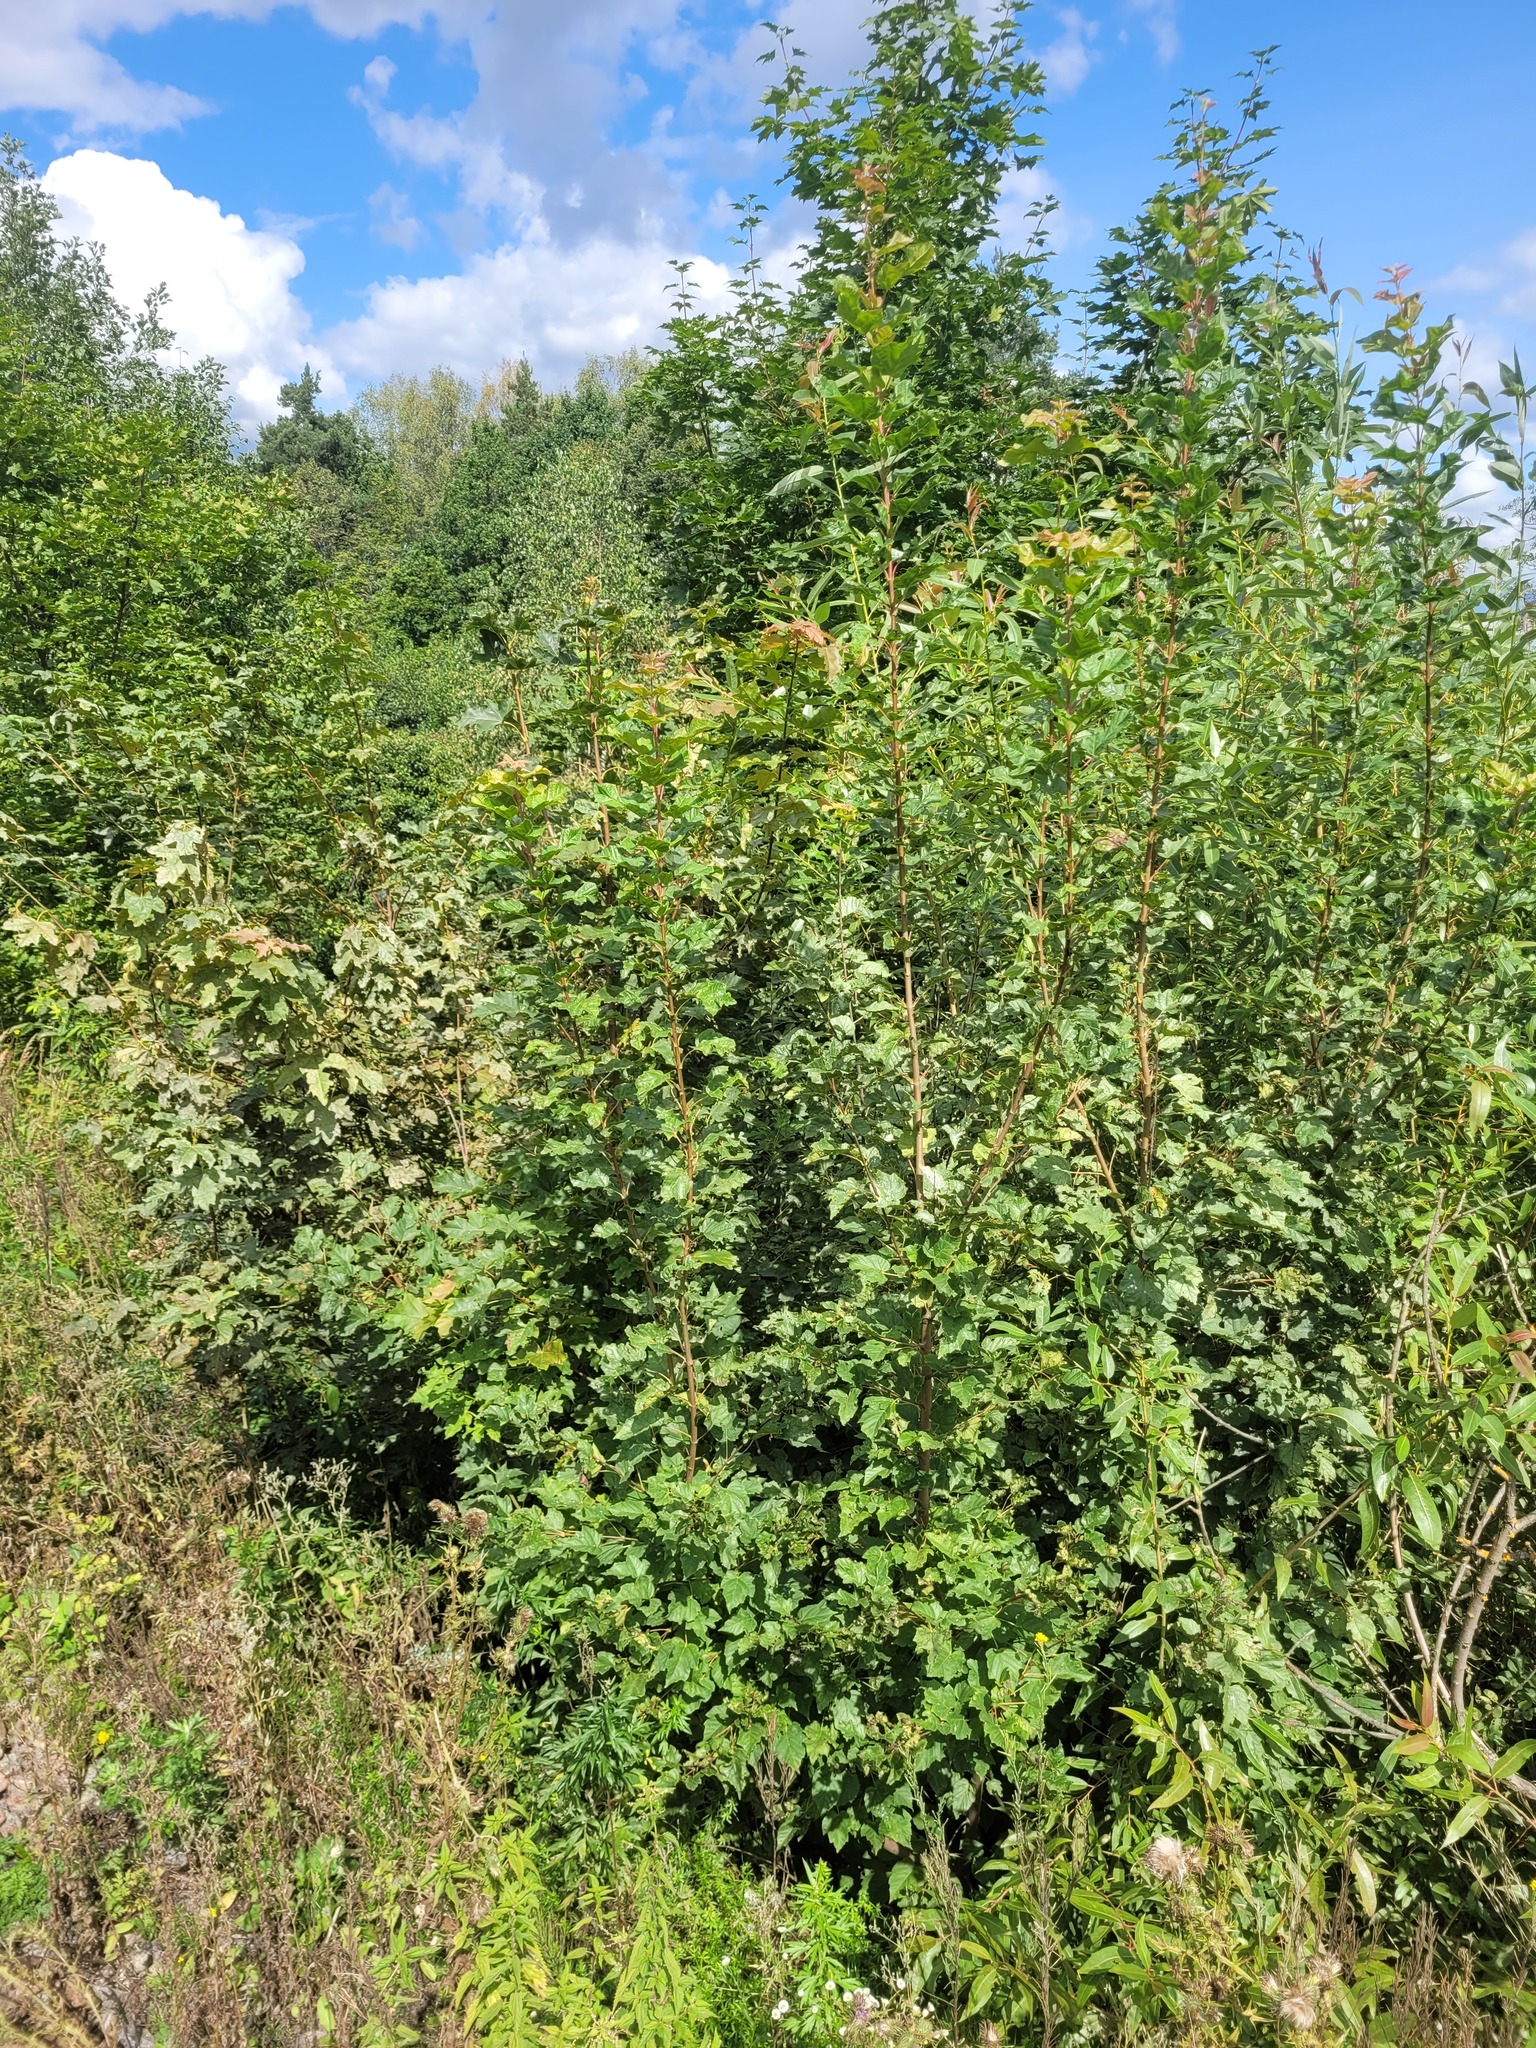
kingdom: Plantae
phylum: Tracheophyta
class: Magnoliopsida
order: Sapindales
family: Sapindaceae
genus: Acer
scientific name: Acer tataricum
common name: Tartar maple
